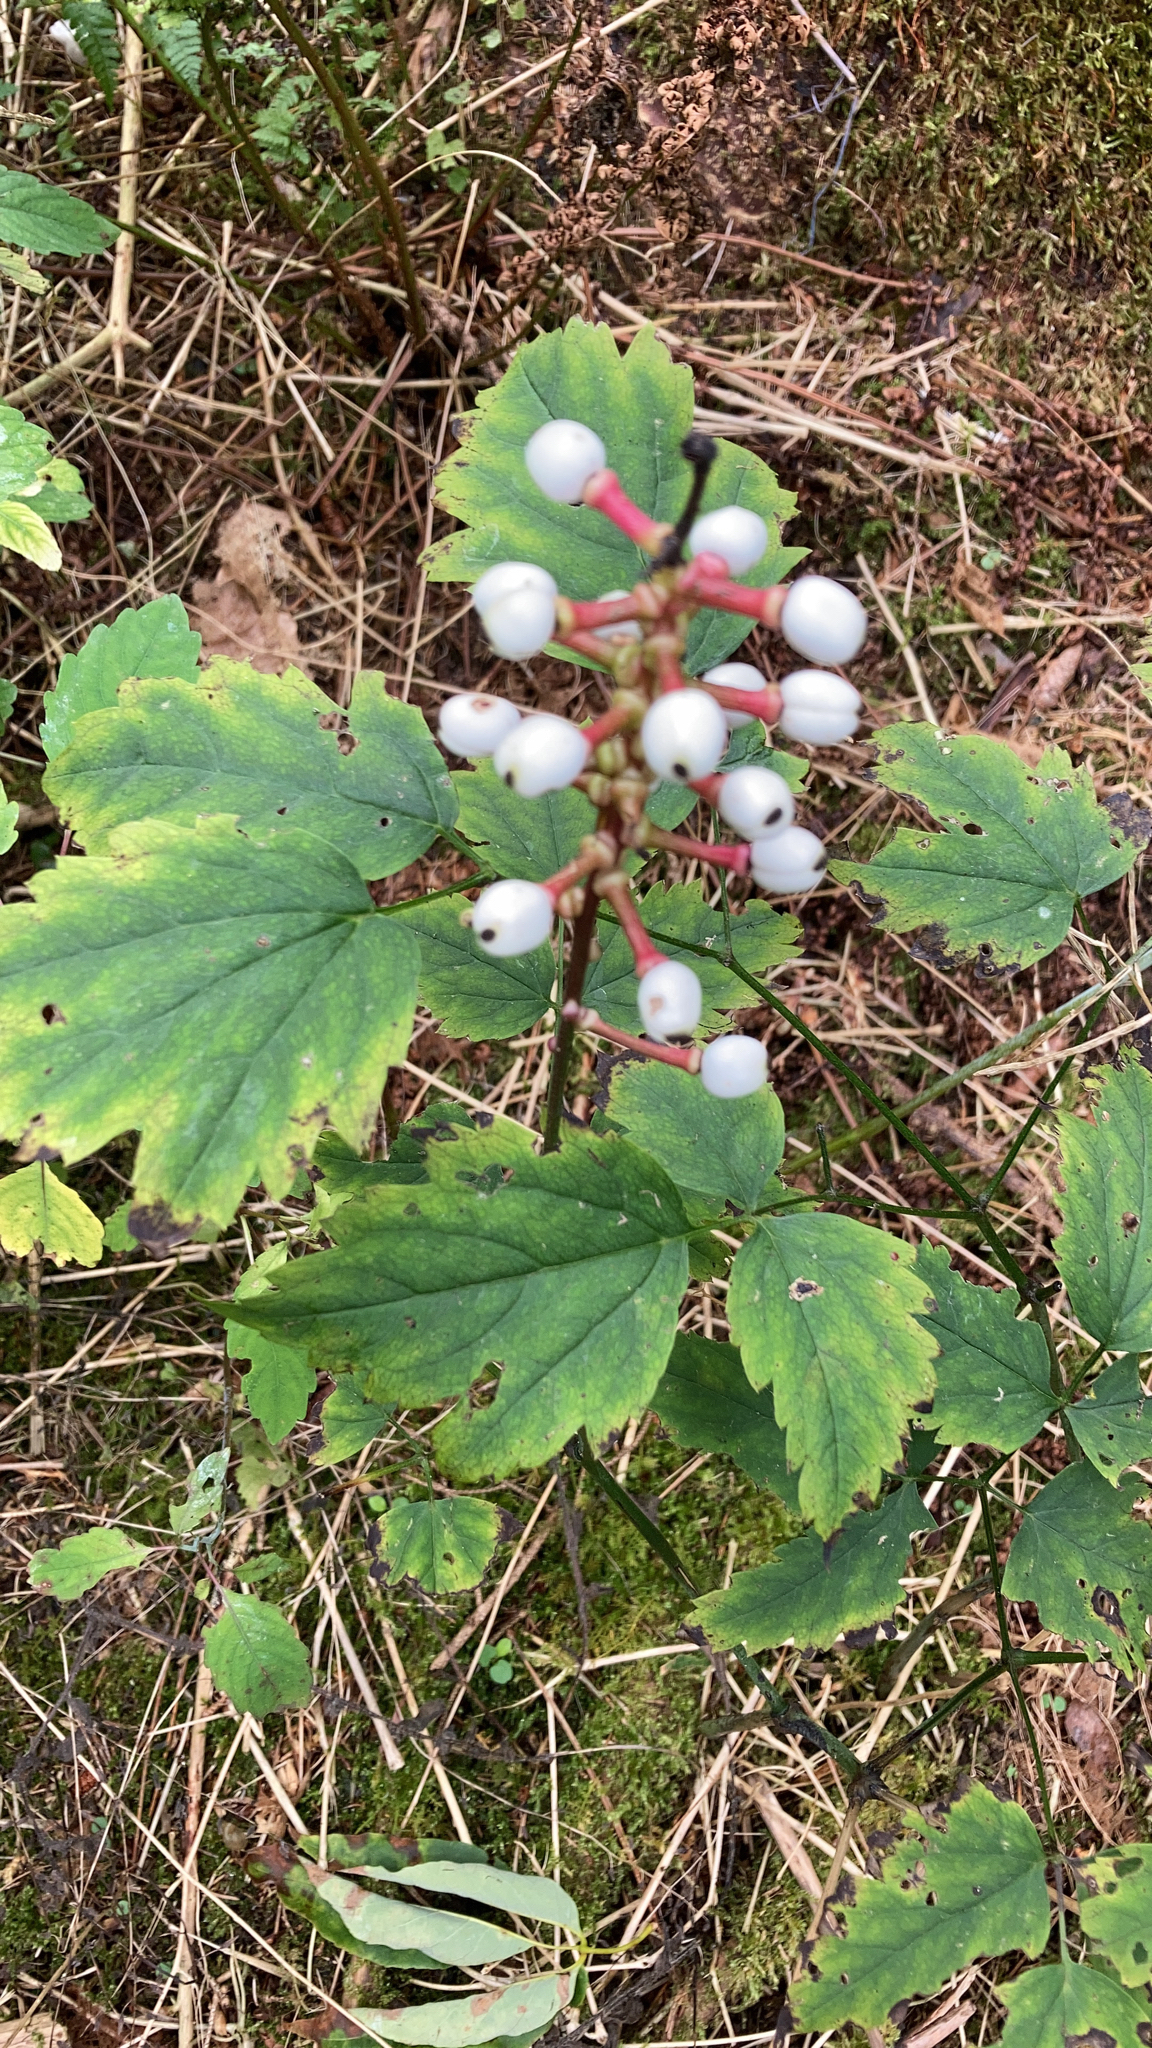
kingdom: Plantae
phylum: Tracheophyta
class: Magnoliopsida
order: Ranunculales
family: Ranunculaceae
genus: Actaea
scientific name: Actaea pachypoda
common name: Doll's-eyes
